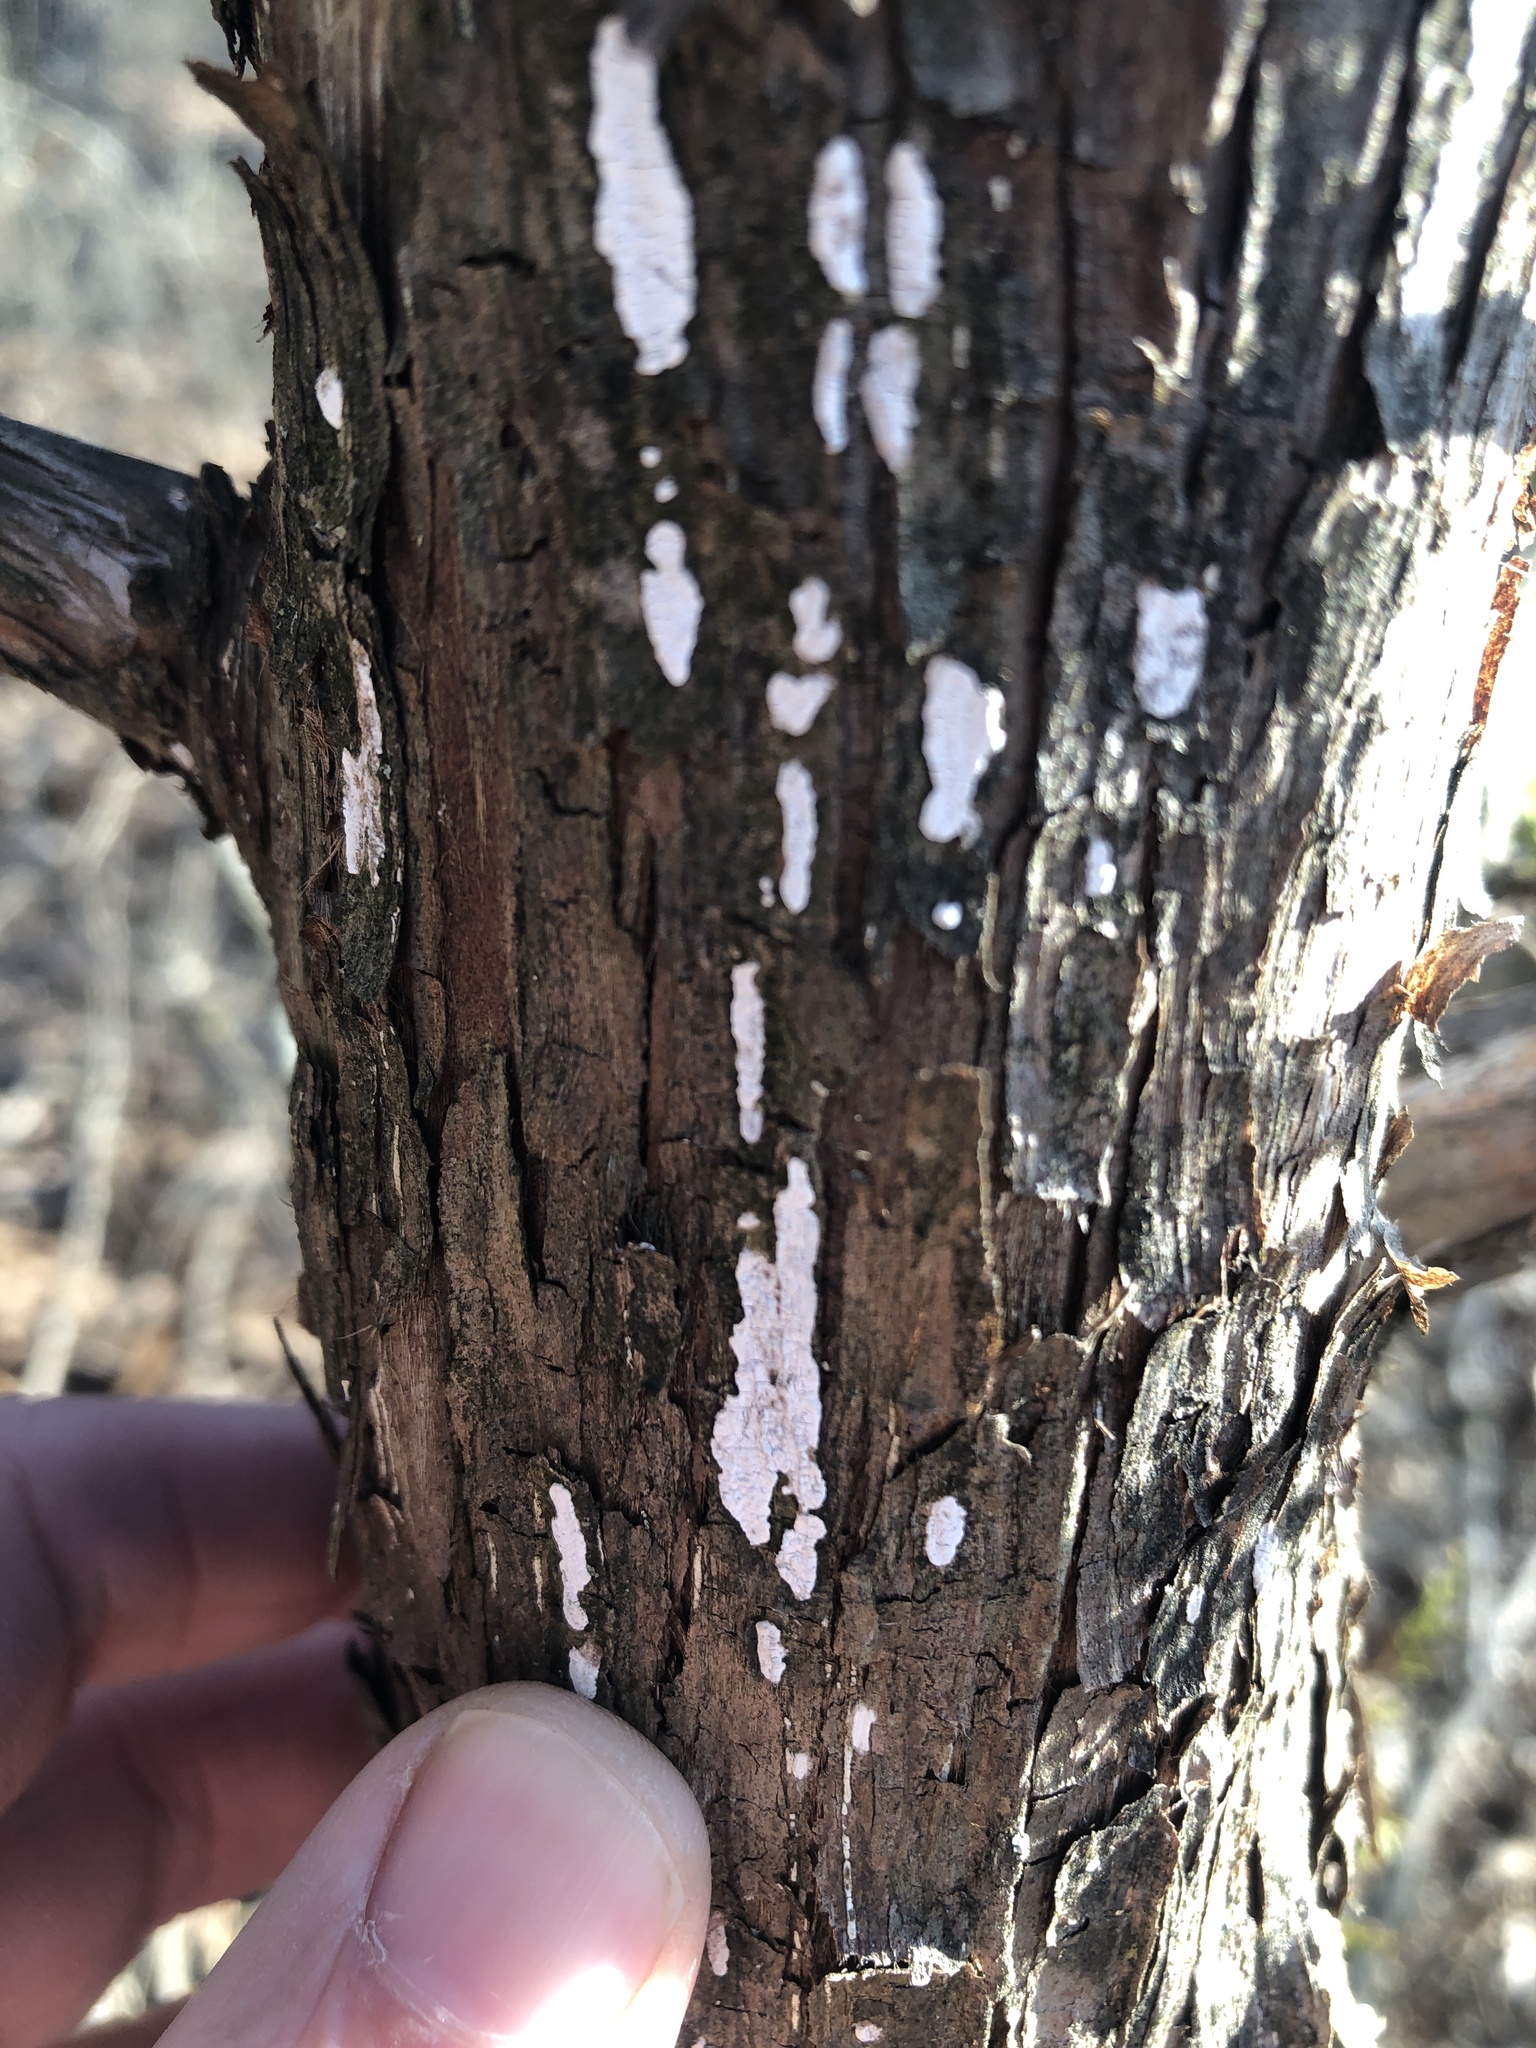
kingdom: Fungi
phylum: Basidiomycota
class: Agaricomycetes
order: Agaricales
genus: Dendrothele
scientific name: Dendrothele nivosa
